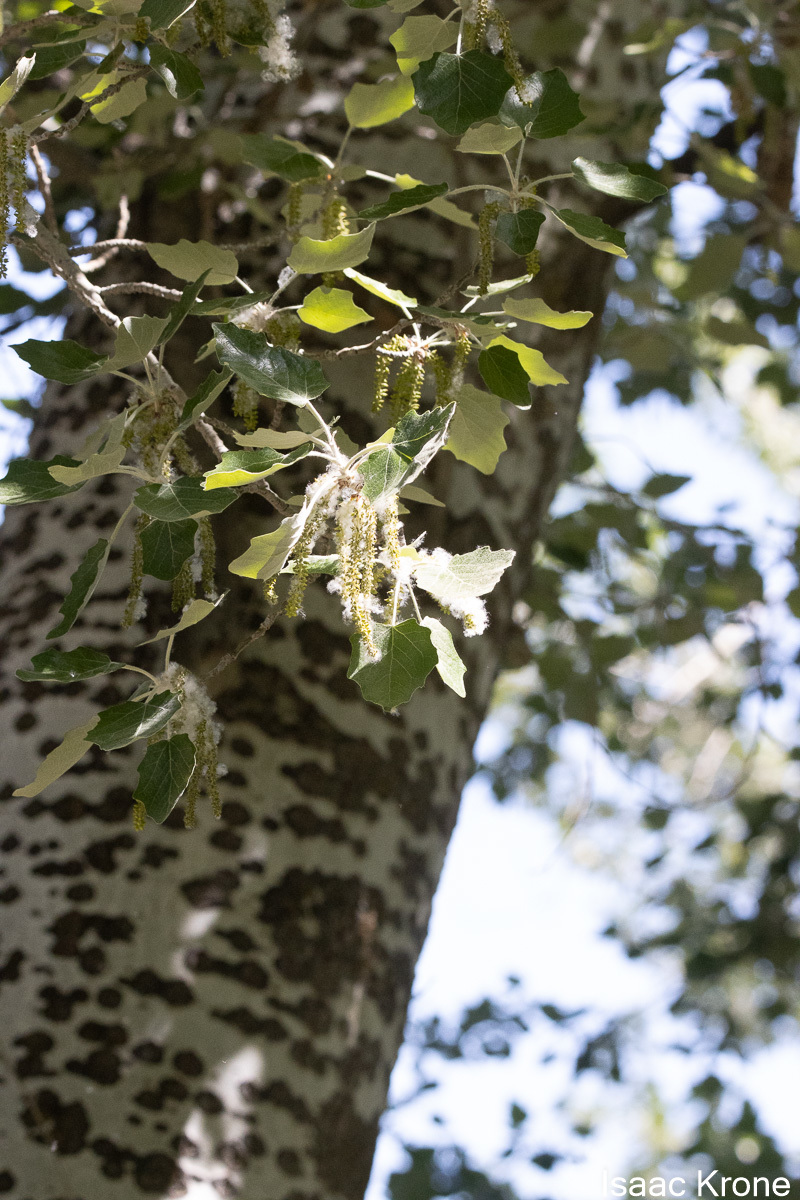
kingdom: Plantae
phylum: Tracheophyta
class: Magnoliopsida
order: Malpighiales
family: Salicaceae
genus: Populus
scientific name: Populus alba
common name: White poplar
